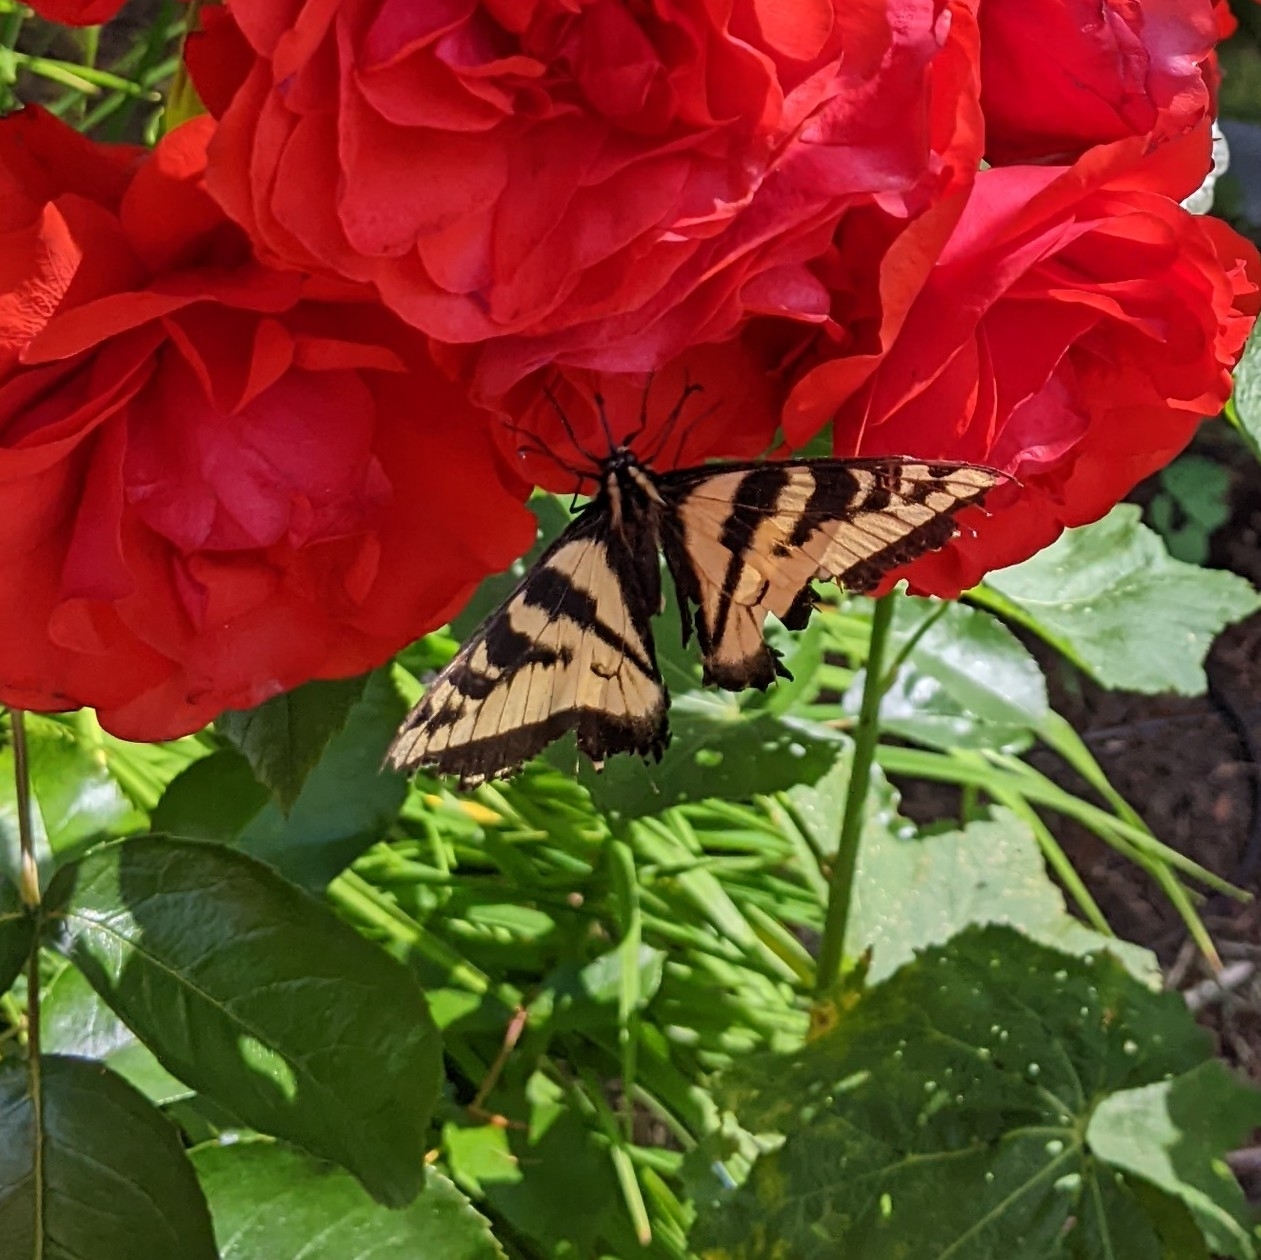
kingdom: Animalia
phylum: Arthropoda
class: Insecta
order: Lepidoptera
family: Papilionidae
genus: Papilio
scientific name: Papilio rutulus
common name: Western tiger swallowtail
